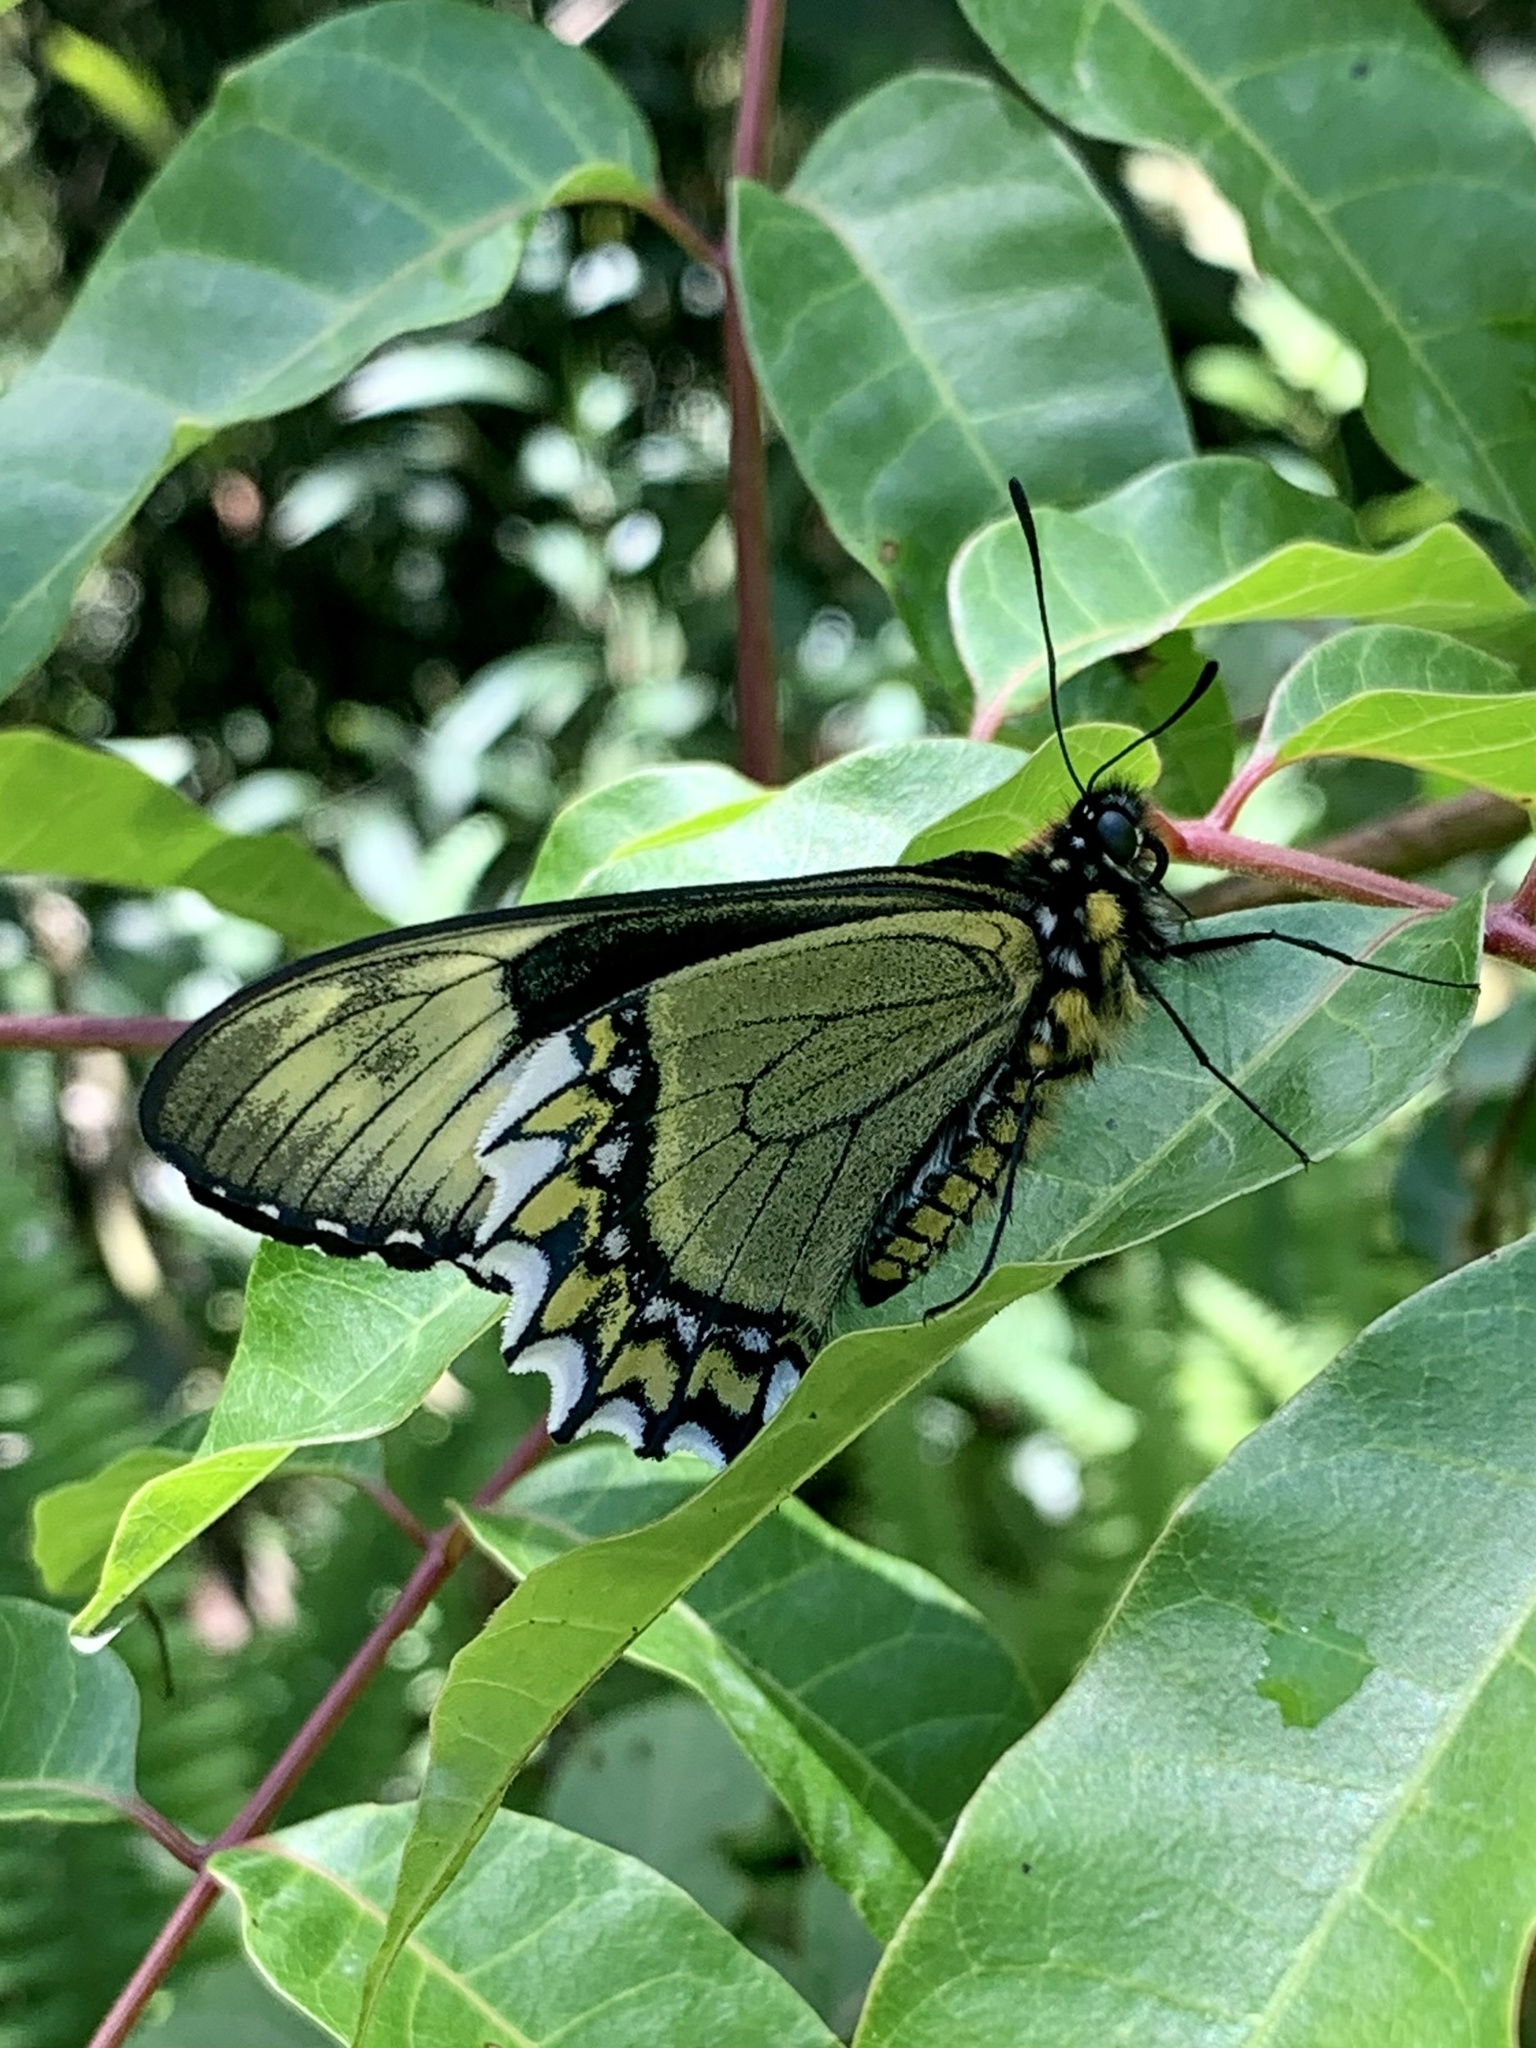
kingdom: Animalia
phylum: Arthropoda
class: Insecta
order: Lepidoptera
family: Papilionidae
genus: Battus
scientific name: Battus madyes
